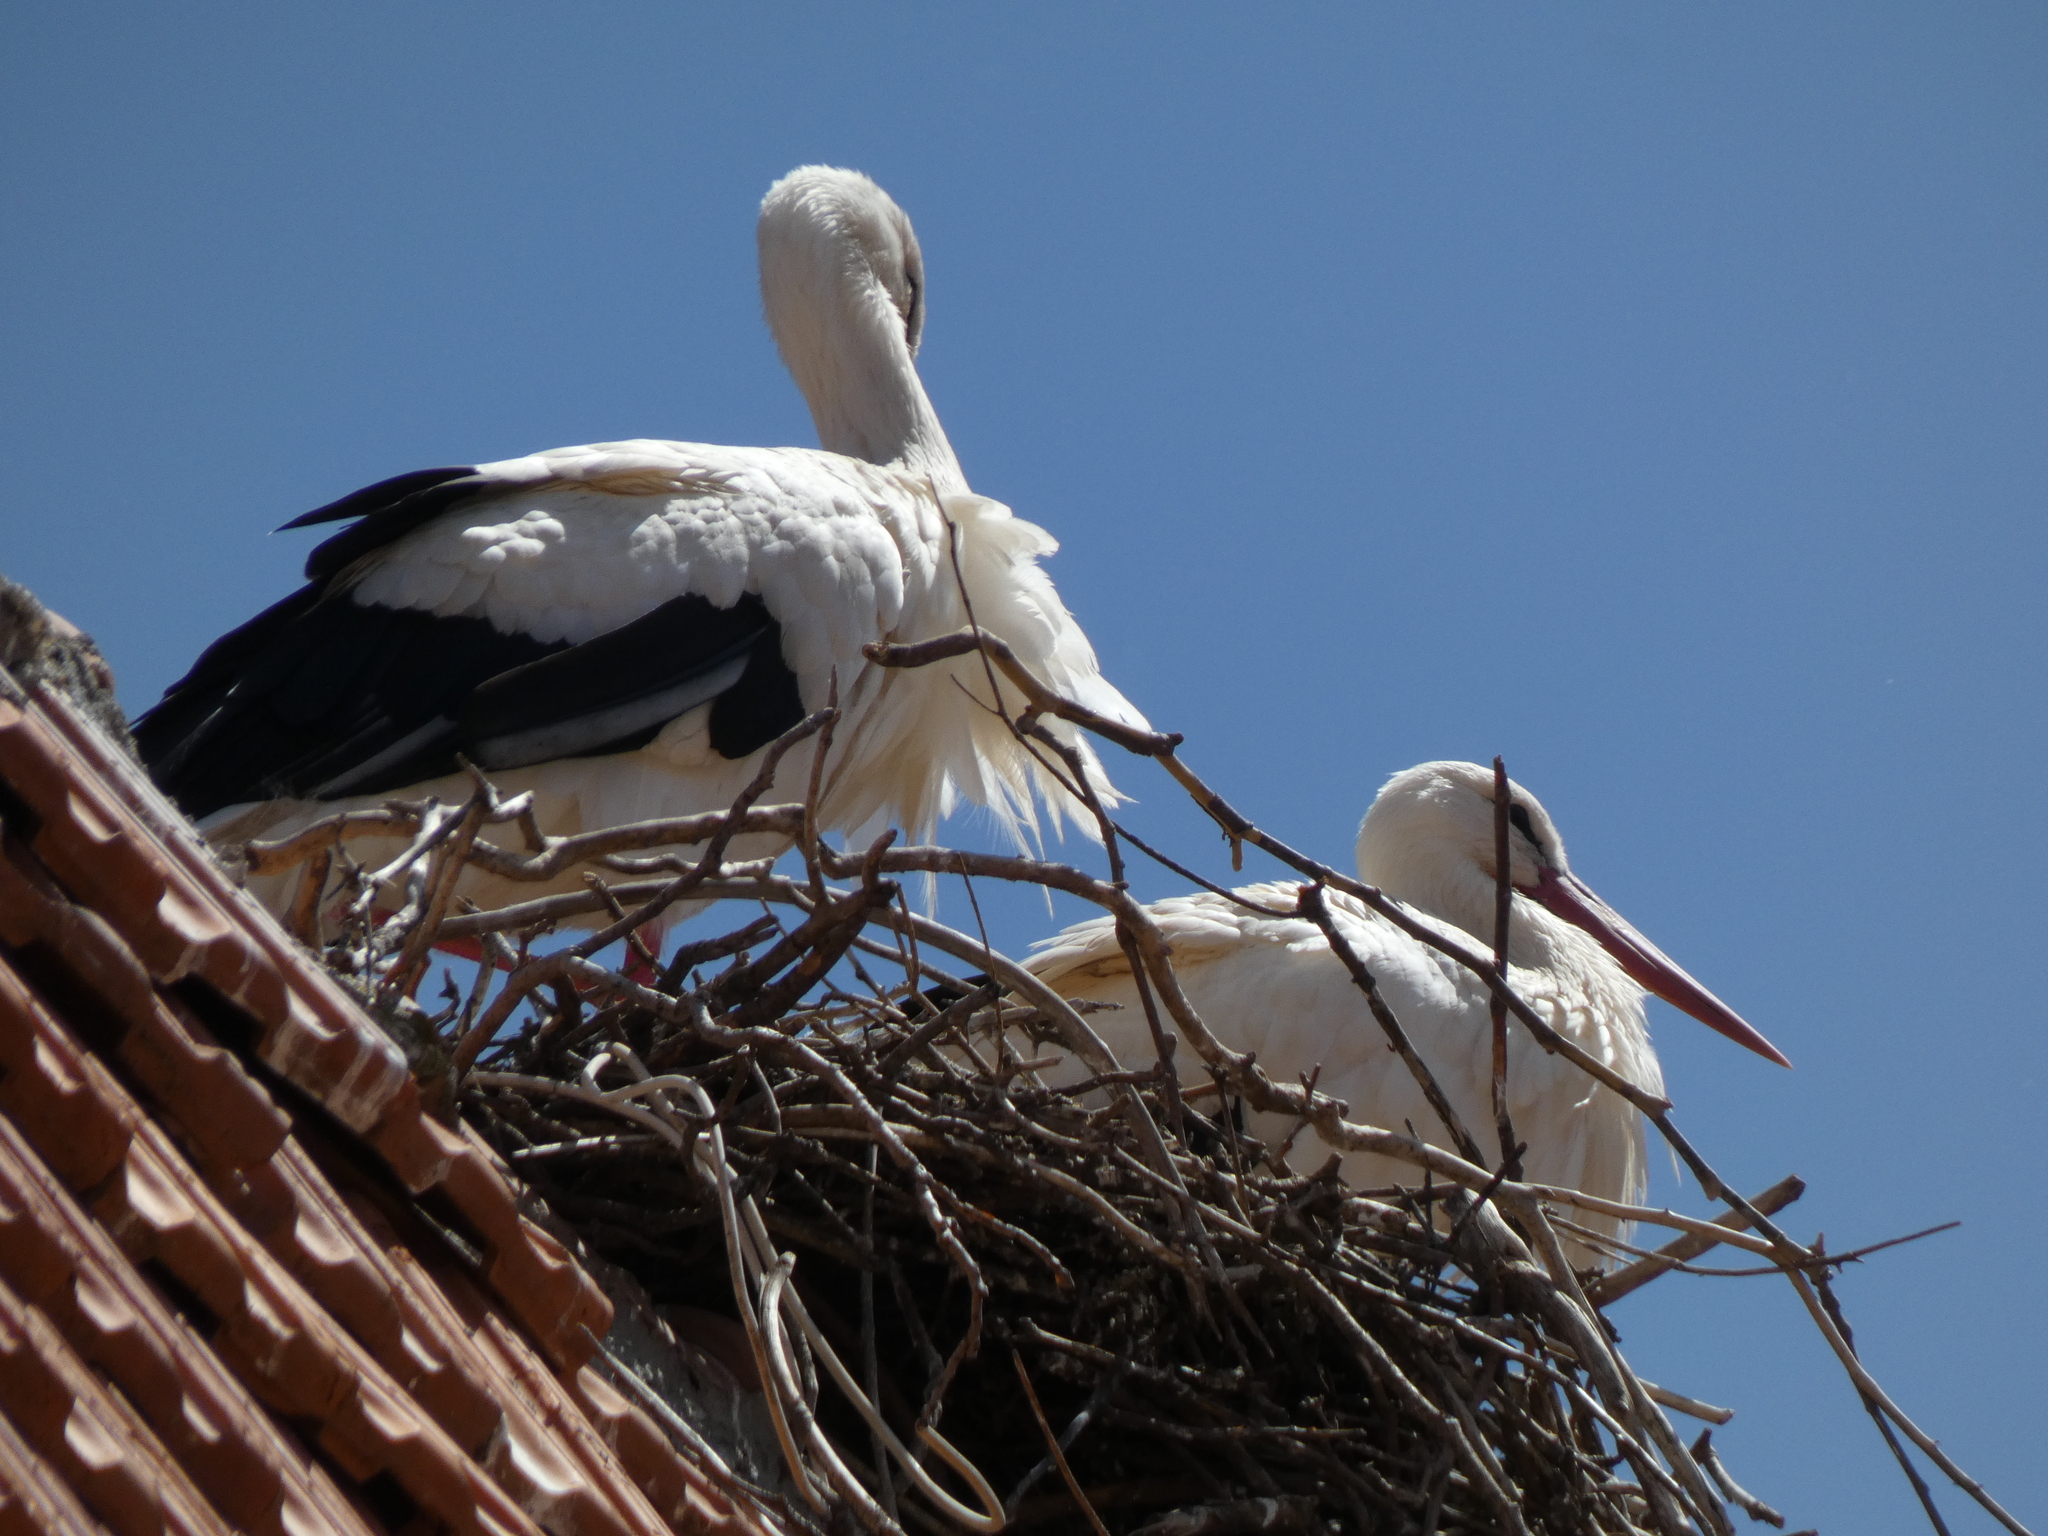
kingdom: Animalia
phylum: Chordata
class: Aves
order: Ciconiiformes
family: Ciconiidae
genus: Ciconia
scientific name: Ciconia ciconia
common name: White stork
